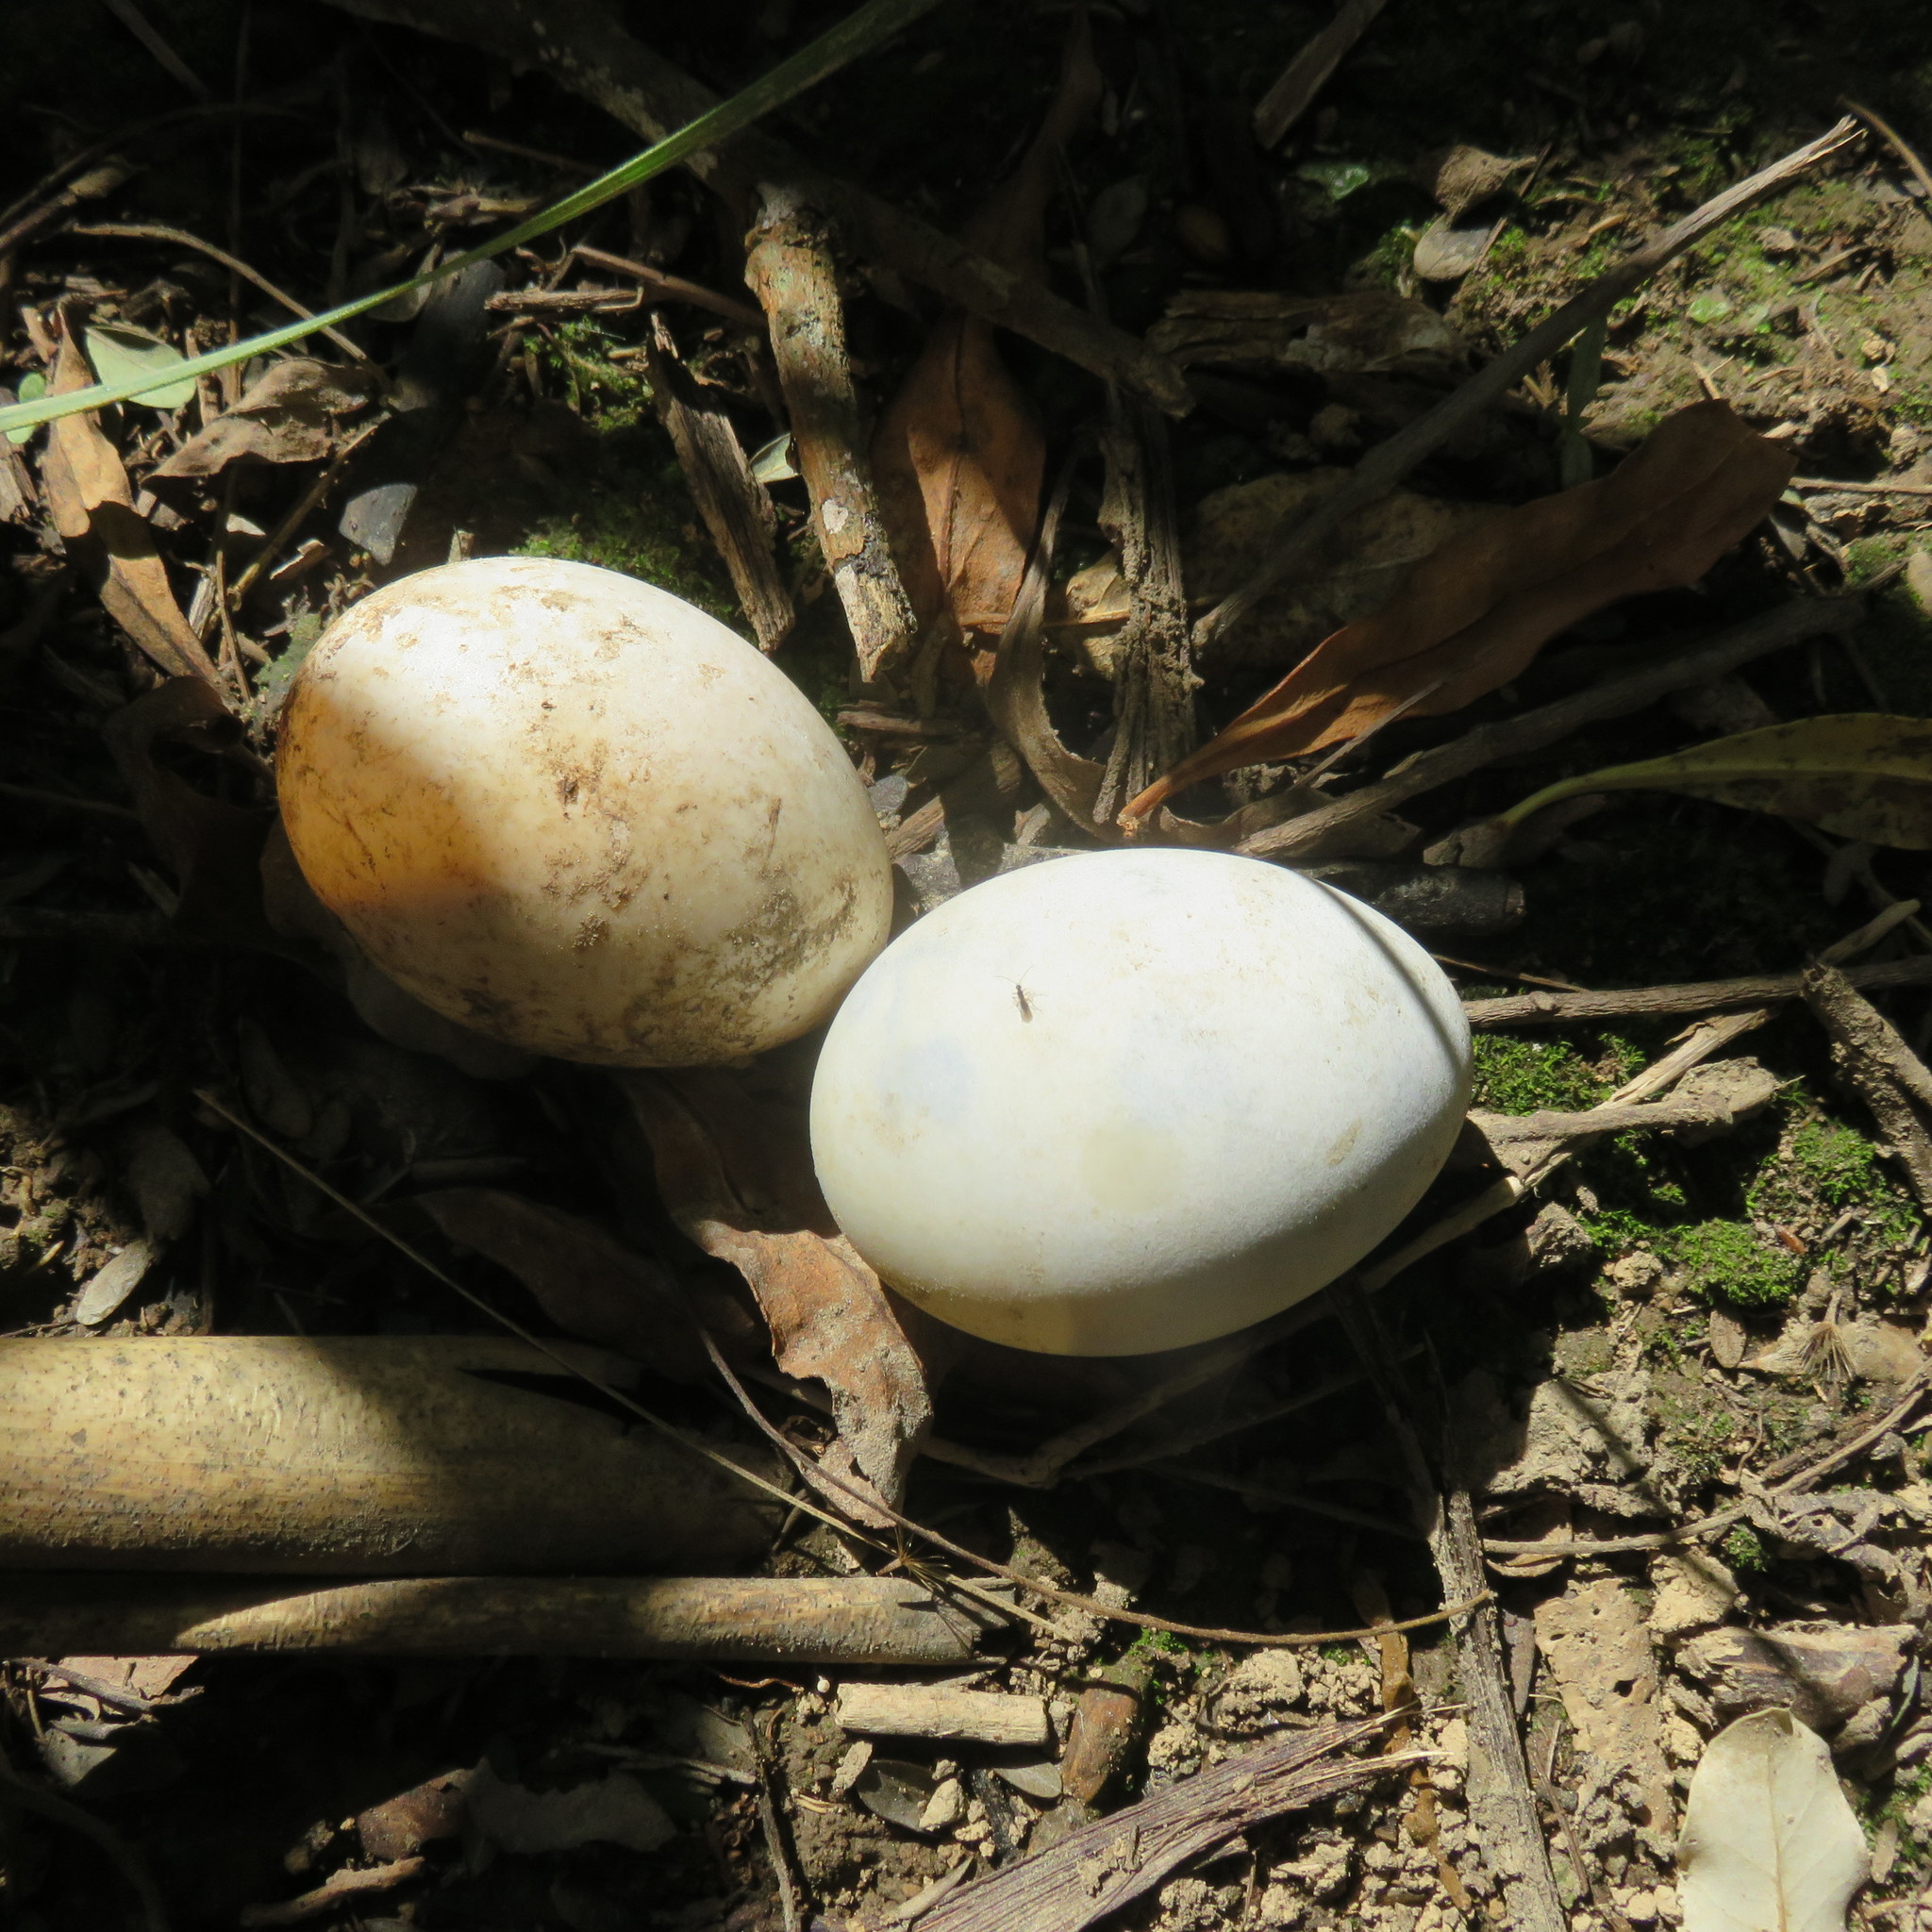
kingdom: Animalia
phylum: Chordata
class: Aves
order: Anseriformes
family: Anatidae
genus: Anas
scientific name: Anas
